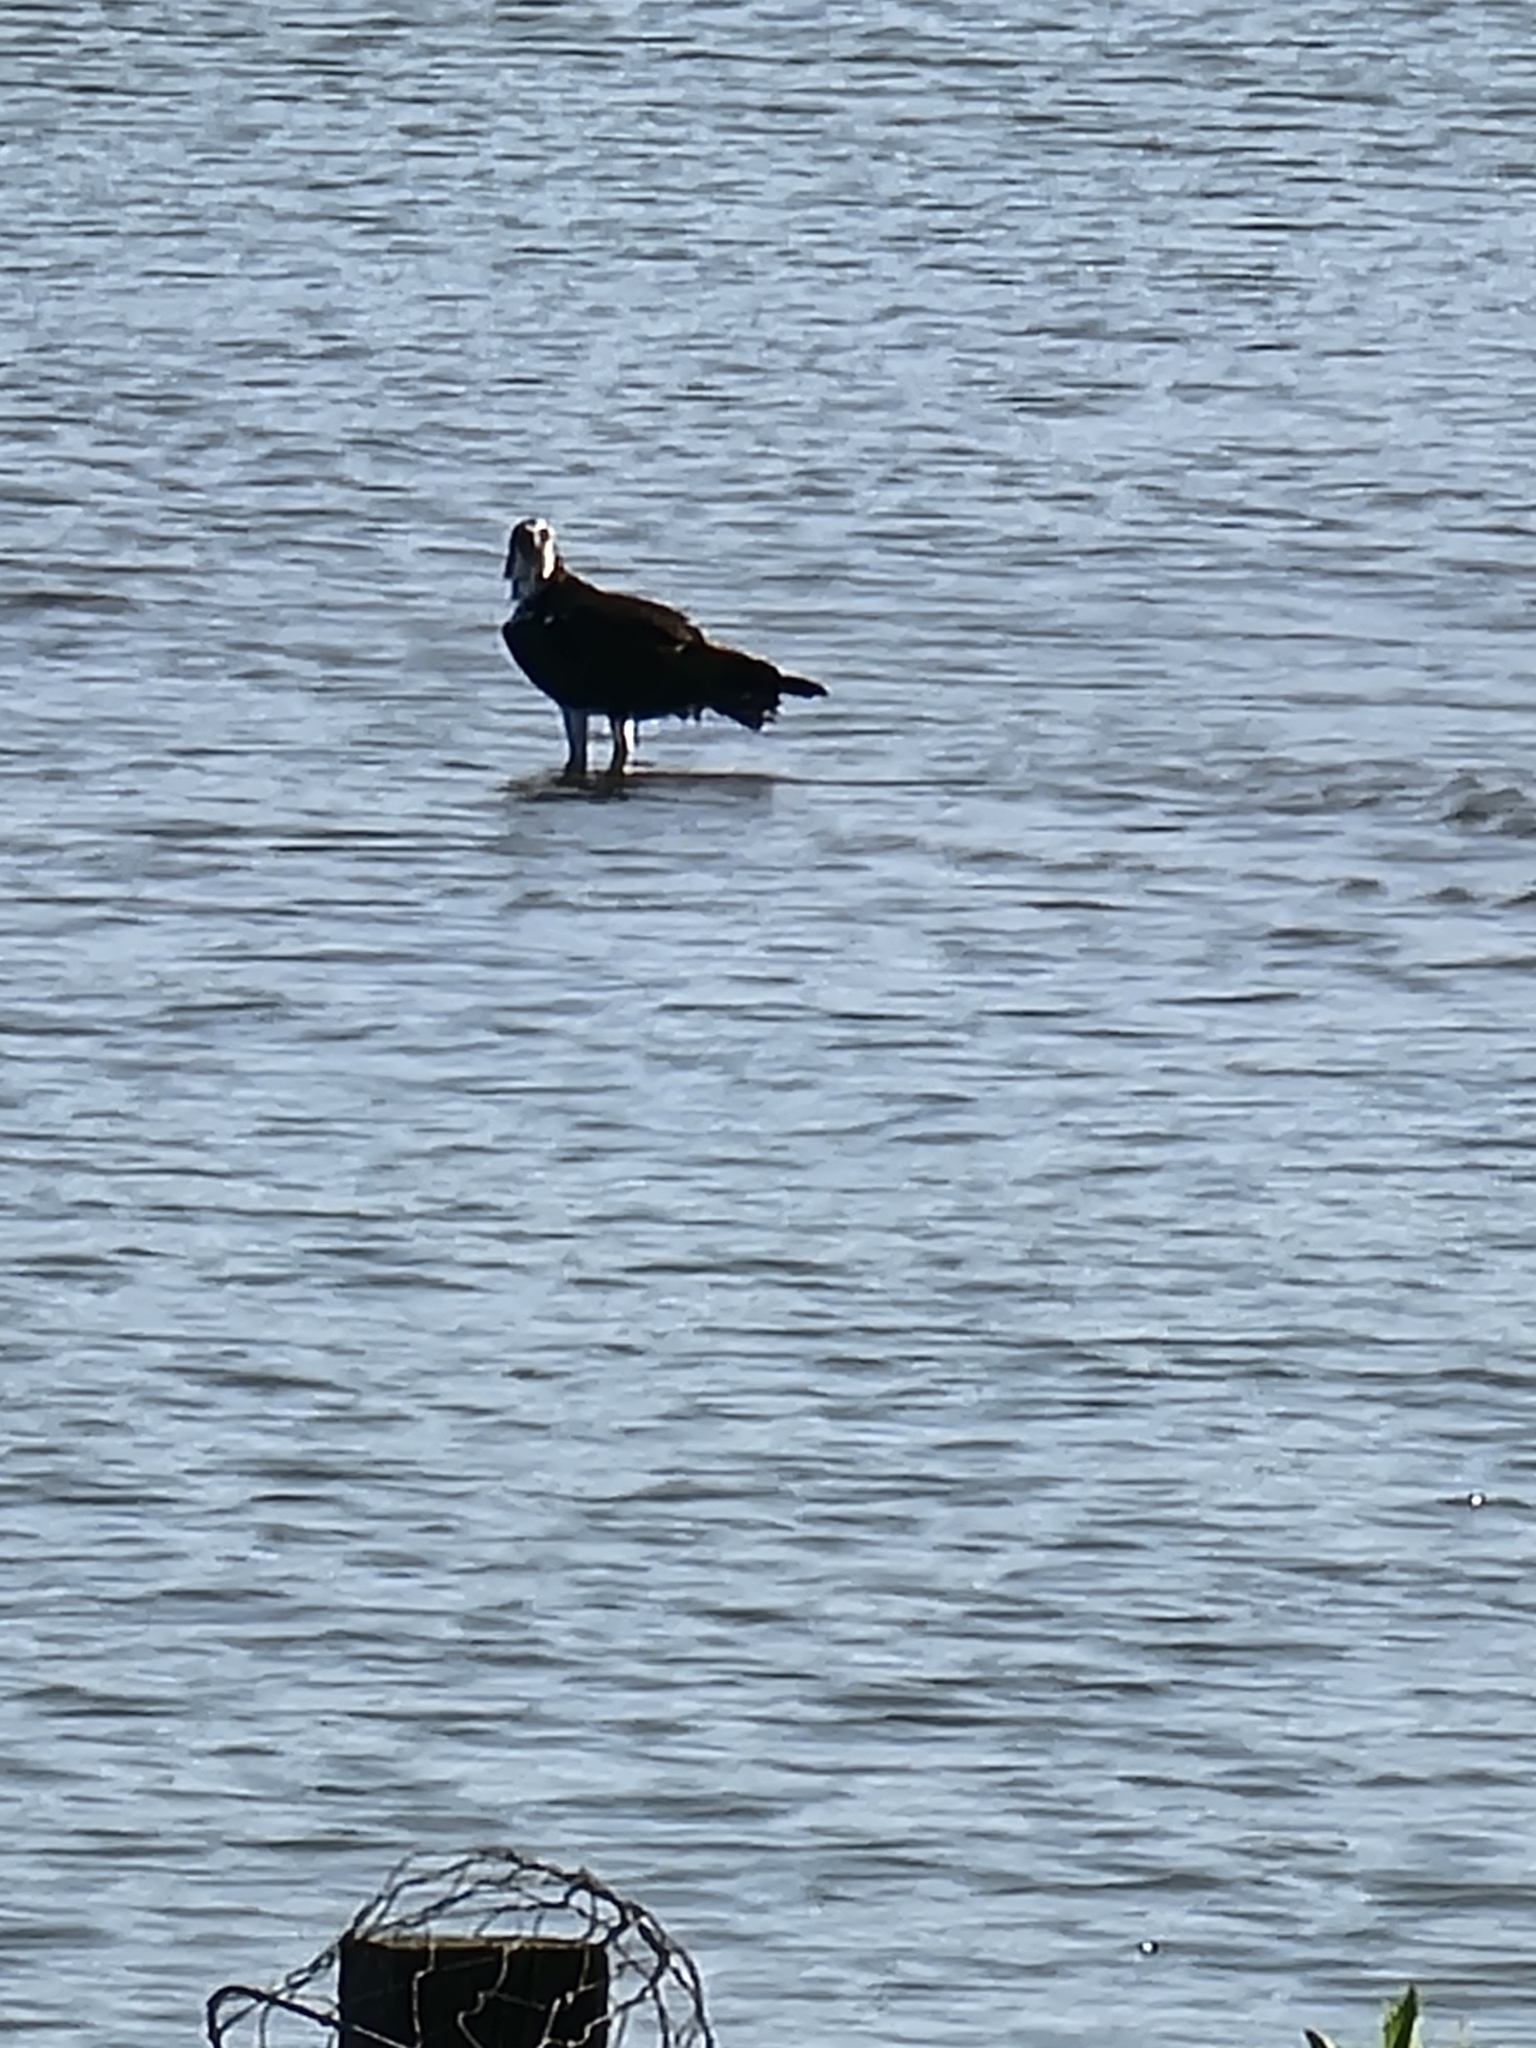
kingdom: Animalia
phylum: Chordata
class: Aves
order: Accipitriformes
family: Pandionidae
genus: Pandion
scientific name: Pandion haliaetus
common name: Osprey
